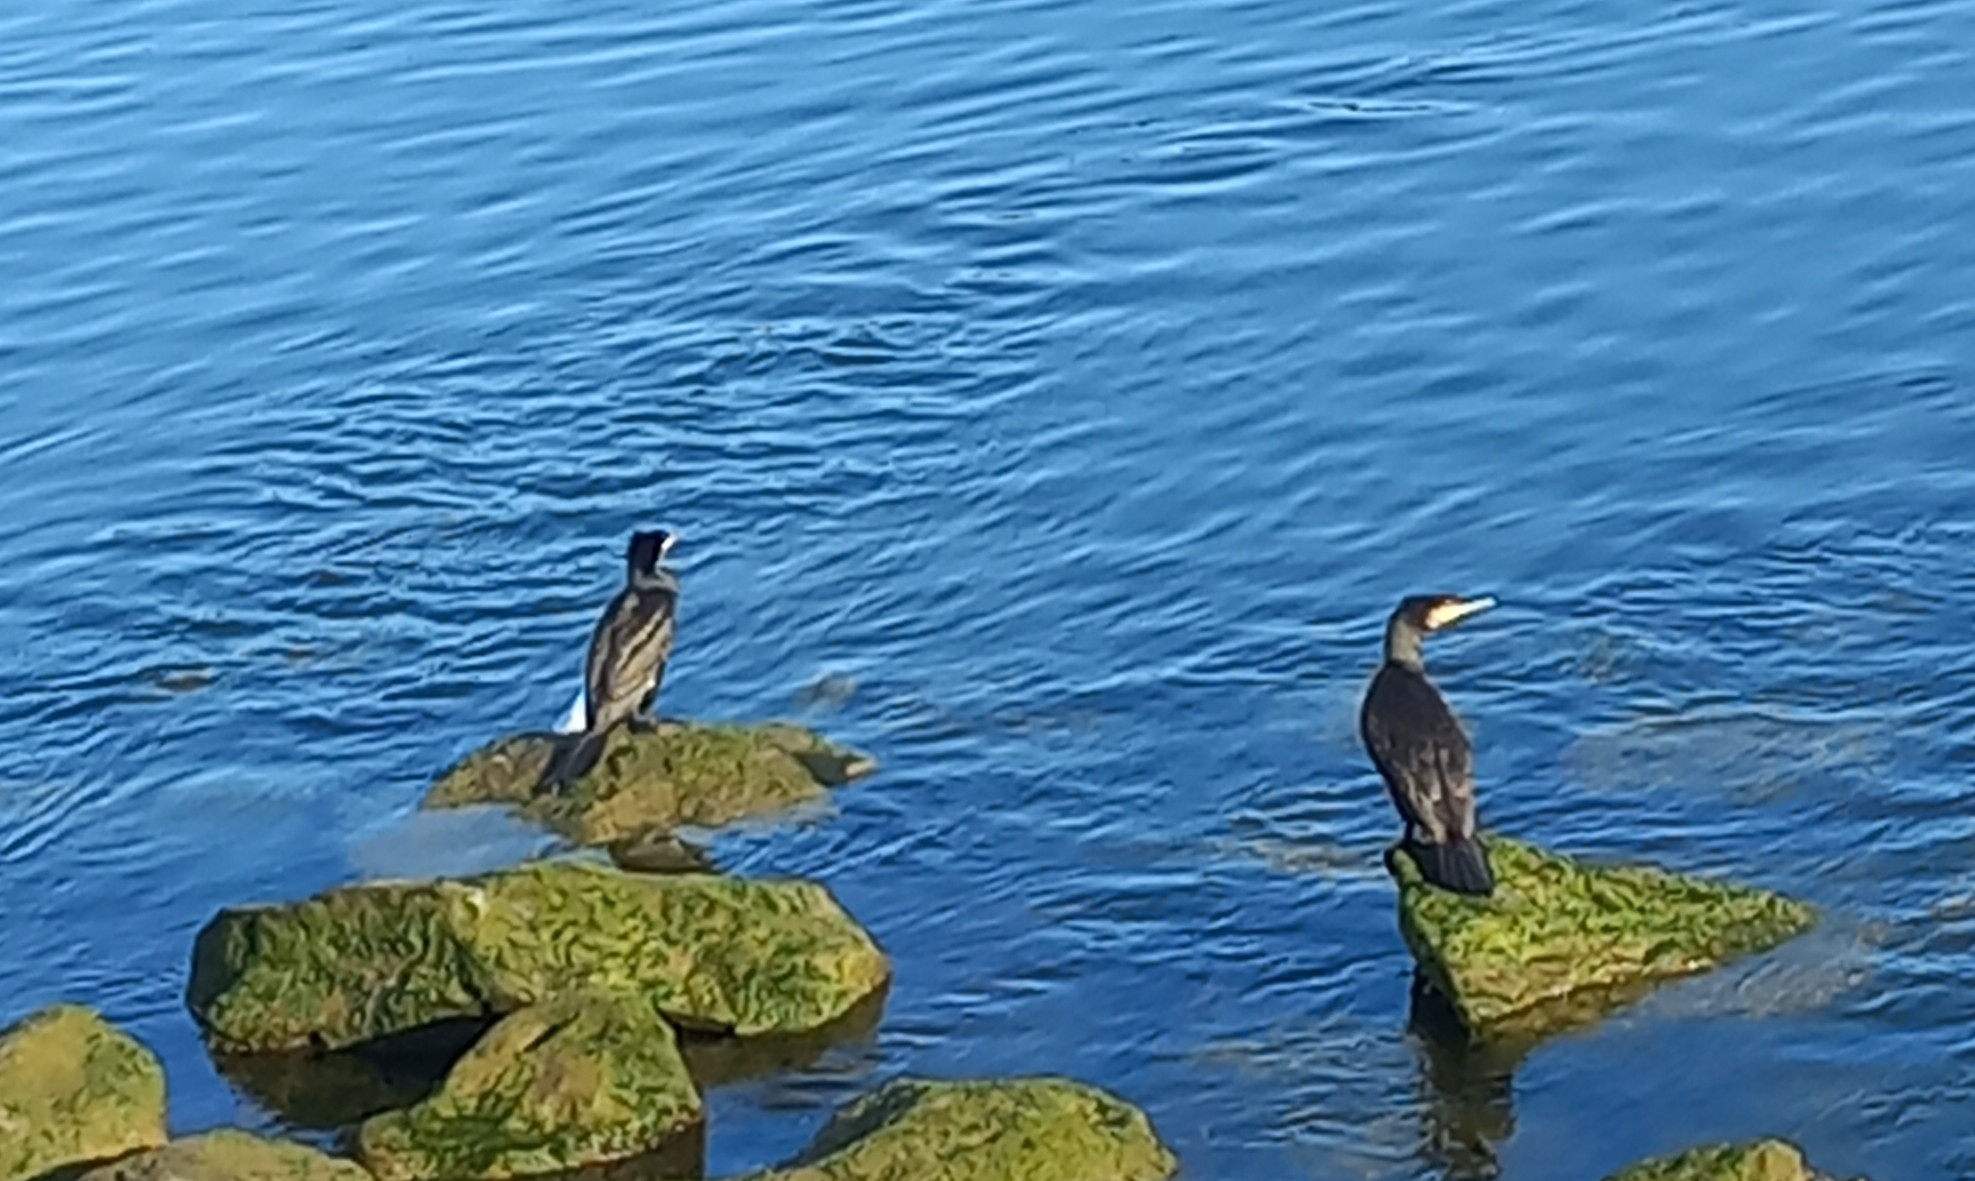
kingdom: Animalia
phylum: Chordata
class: Aves
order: Suliformes
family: Phalacrocoracidae
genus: Phalacrocorax
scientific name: Phalacrocorax carbo
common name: Great cormorant
